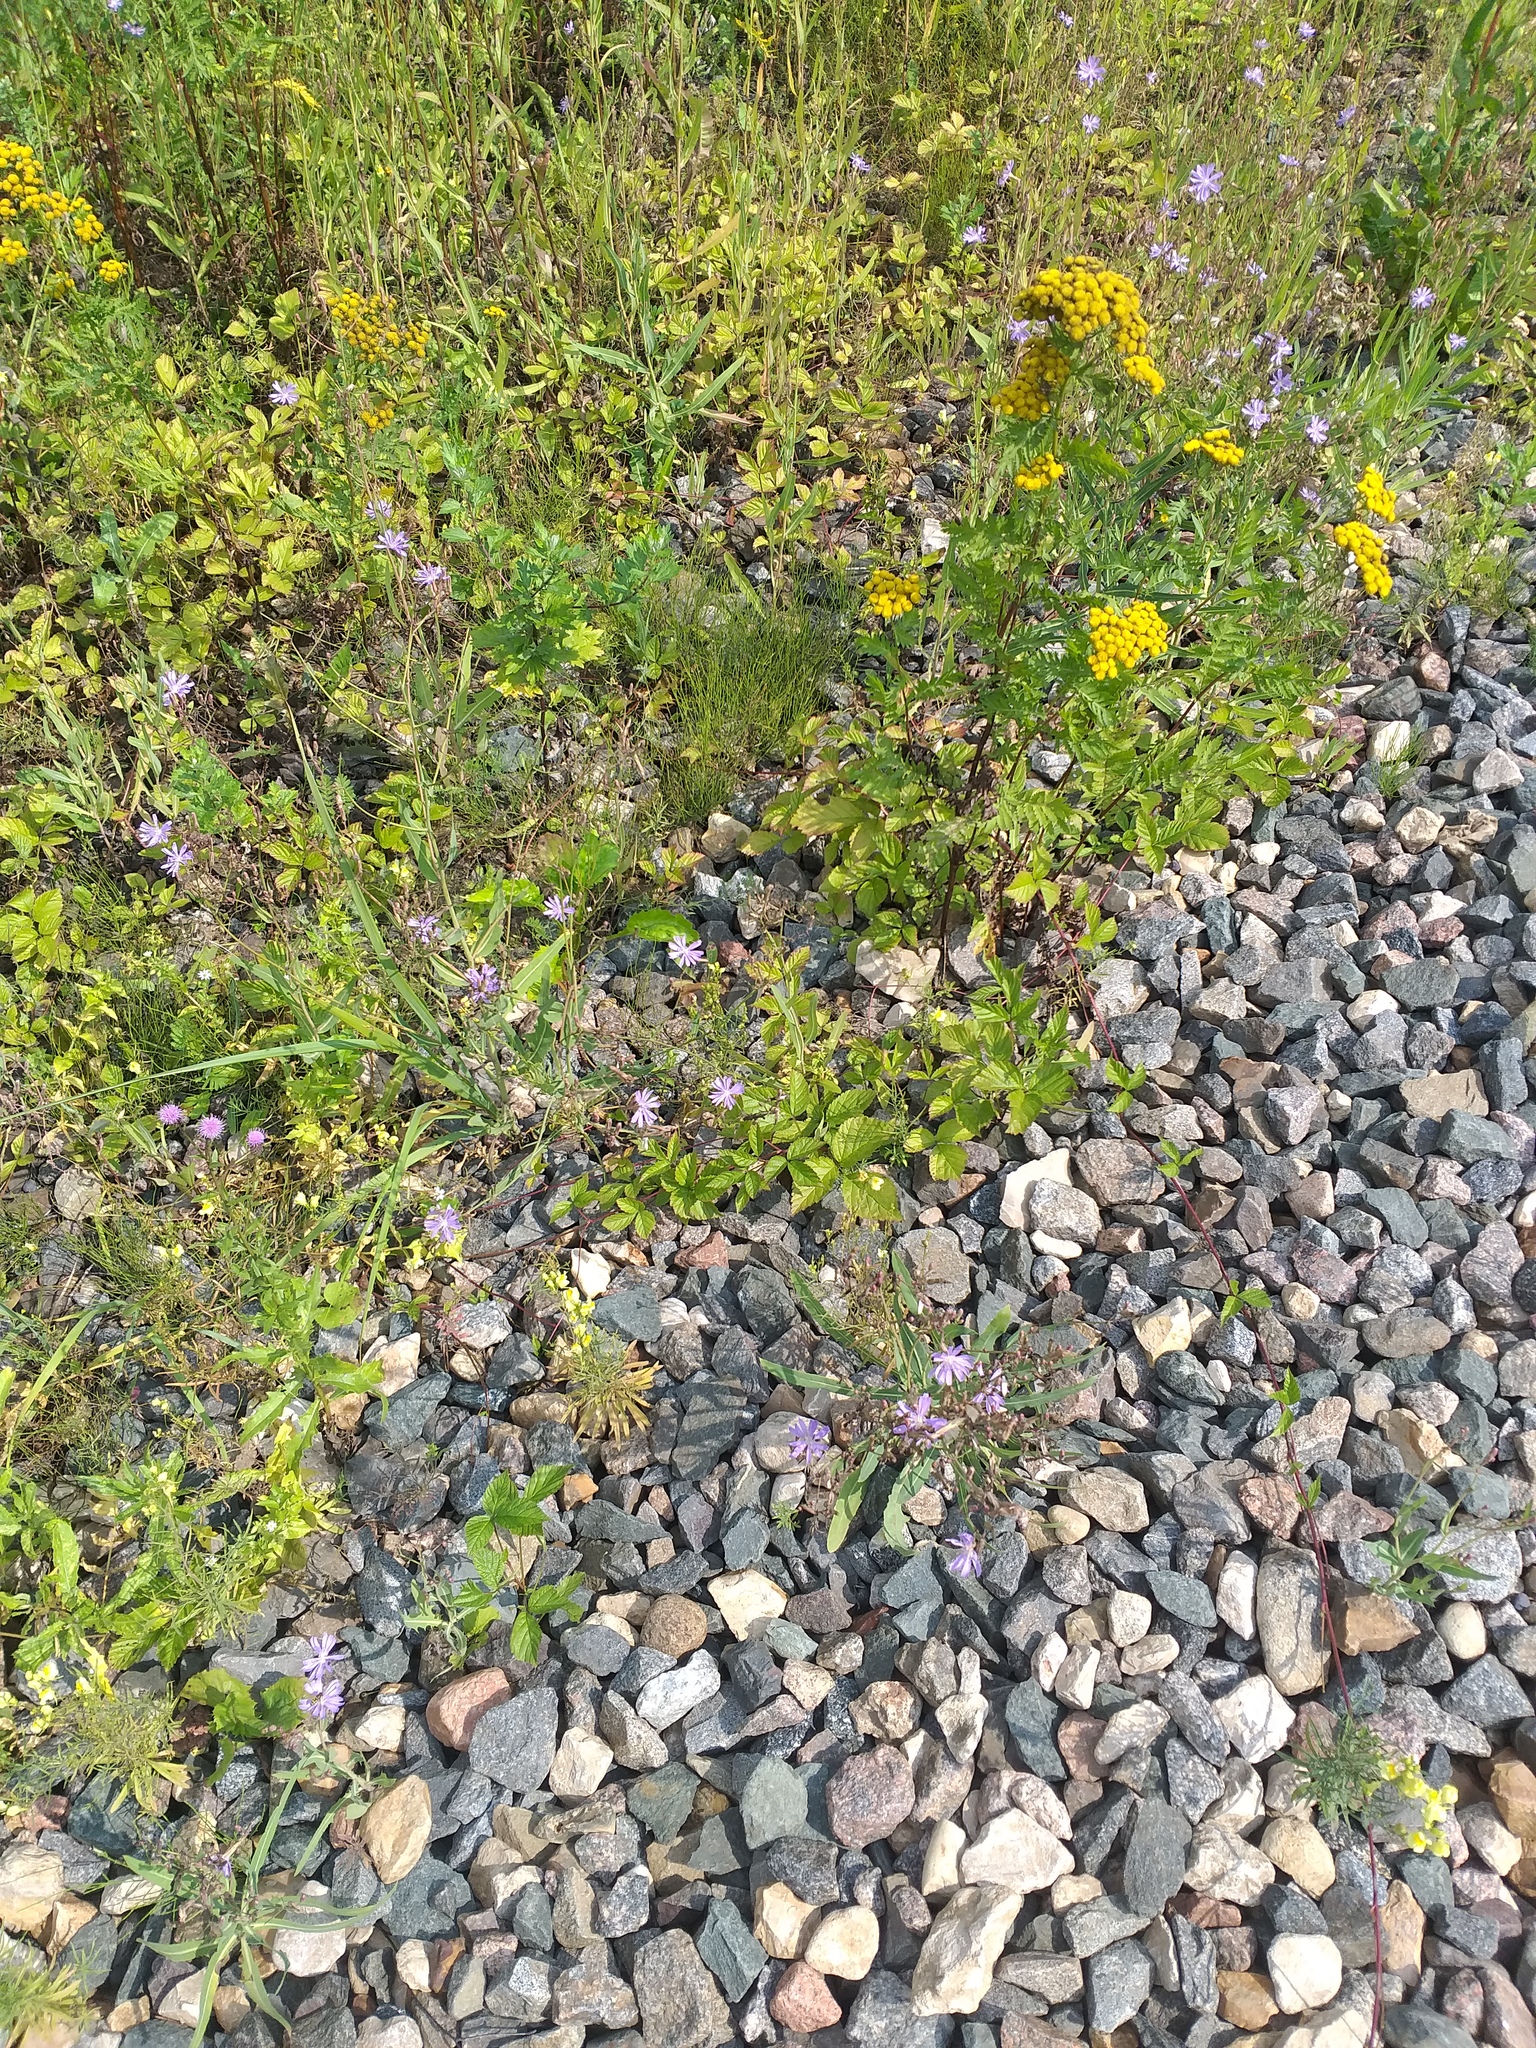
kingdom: Plantae
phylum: Tracheophyta
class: Magnoliopsida
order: Asterales
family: Asteraceae
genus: Lactuca
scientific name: Lactuca tatarica
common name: Blue lettuce
